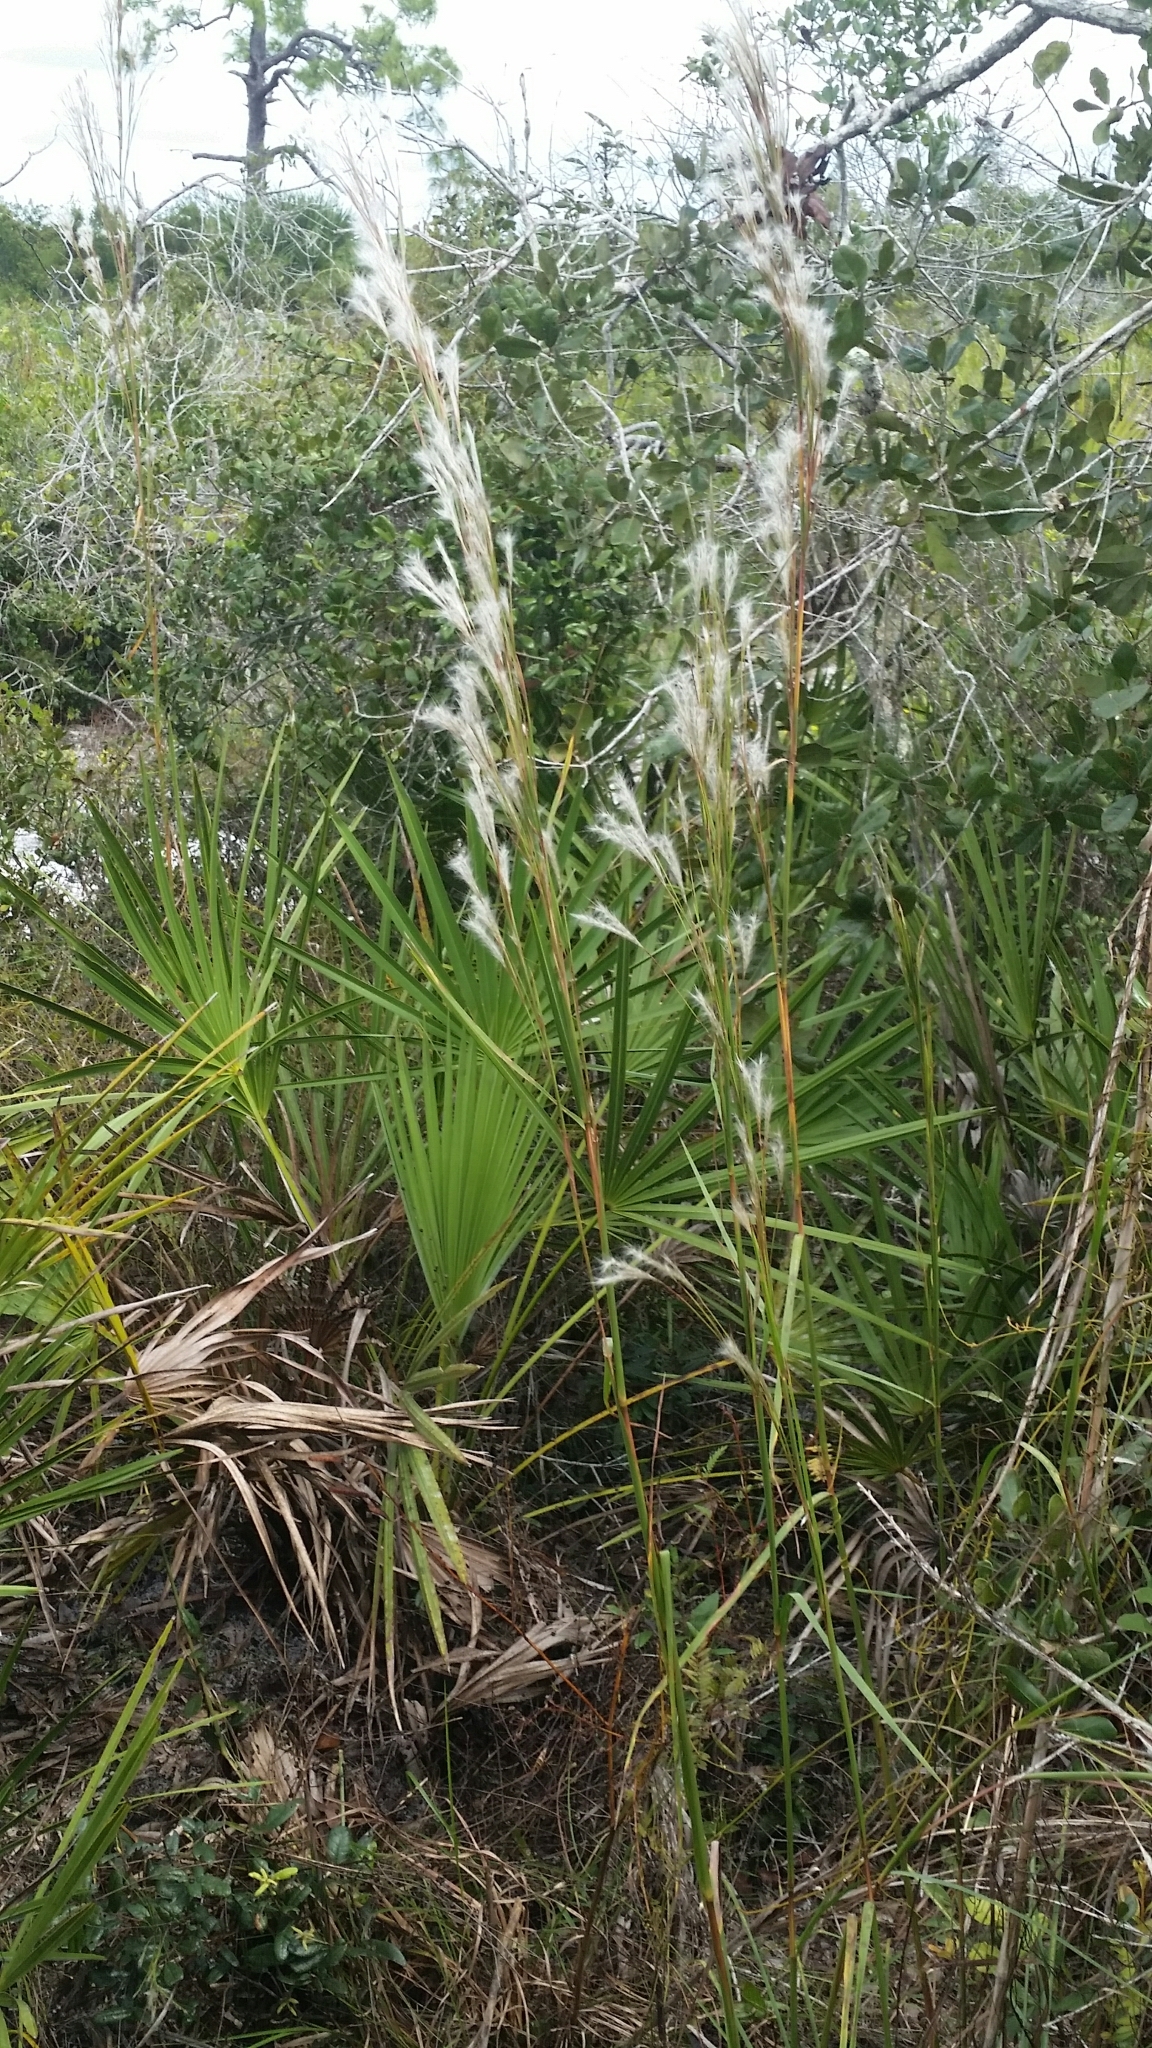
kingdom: Plantae
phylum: Tracheophyta
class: Liliopsida
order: Poales
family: Poaceae
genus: Andropogon
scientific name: Andropogon floridanus
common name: Florida bluestem
